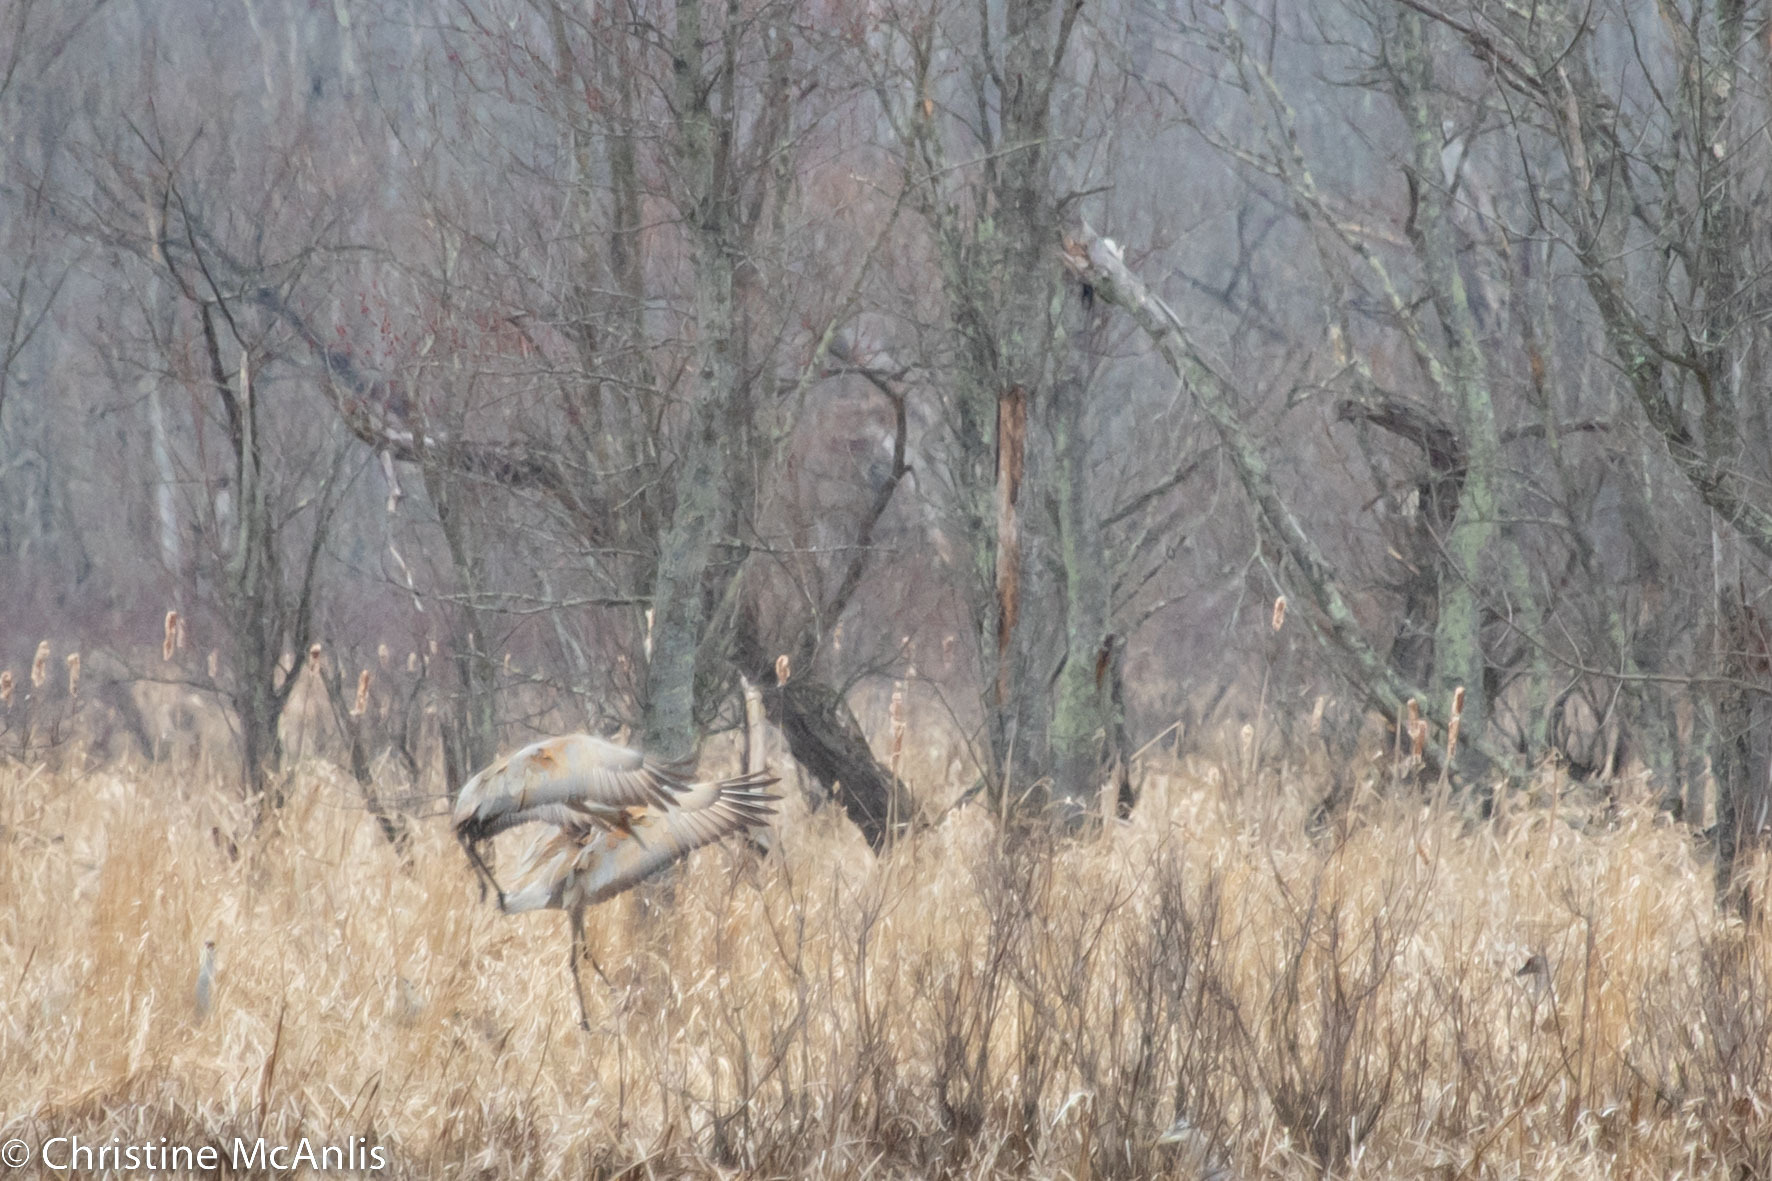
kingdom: Animalia
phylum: Chordata
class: Aves
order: Gruiformes
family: Gruidae
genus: Grus
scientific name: Grus canadensis
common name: Sandhill crane
